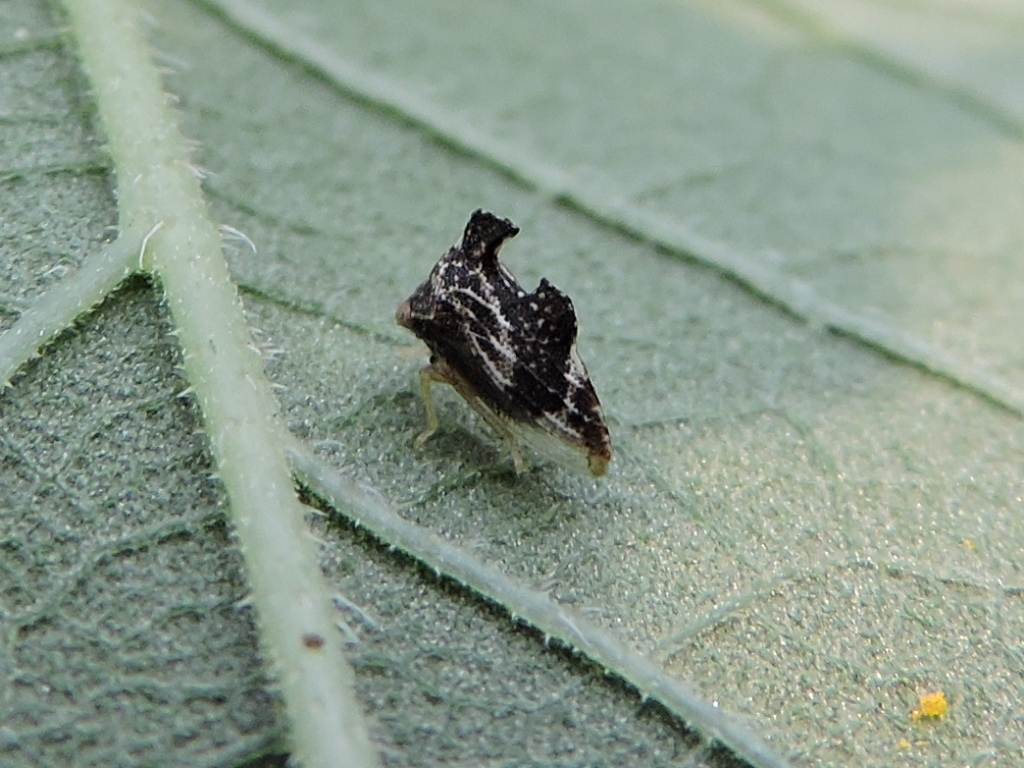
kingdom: Animalia
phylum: Arthropoda
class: Insecta
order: Hemiptera
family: Membracidae
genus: Entylia
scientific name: Entylia carinata
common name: Keeled treehopper
